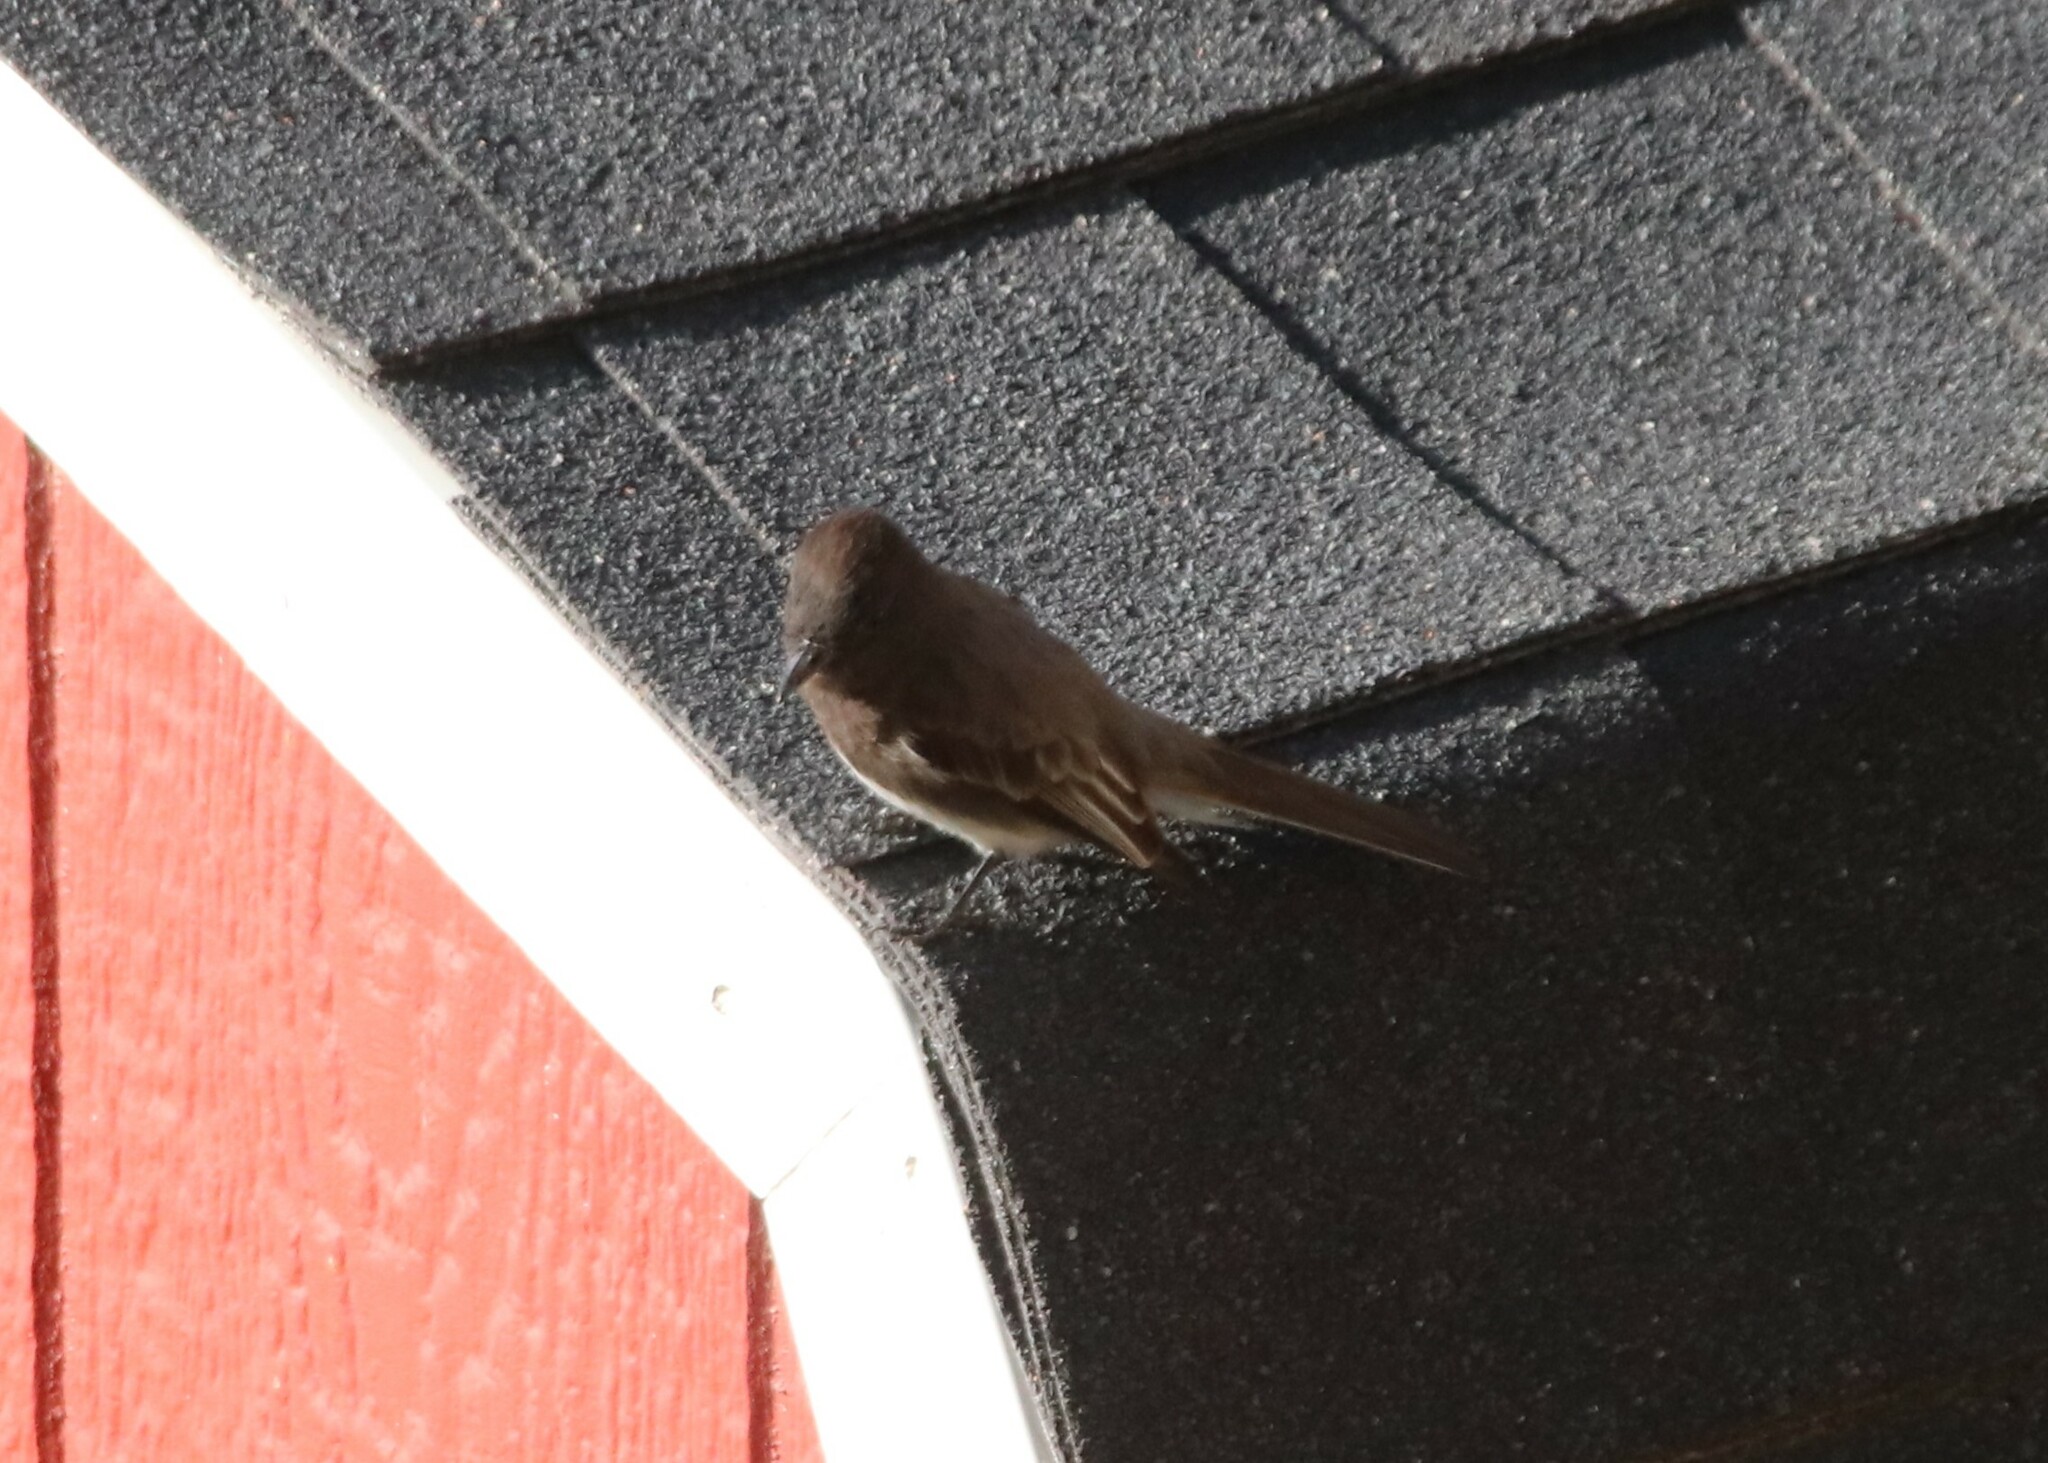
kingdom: Animalia
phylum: Chordata
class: Aves
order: Passeriformes
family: Tyrannidae
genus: Sayornis
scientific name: Sayornis nigricans
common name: Black phoebe
